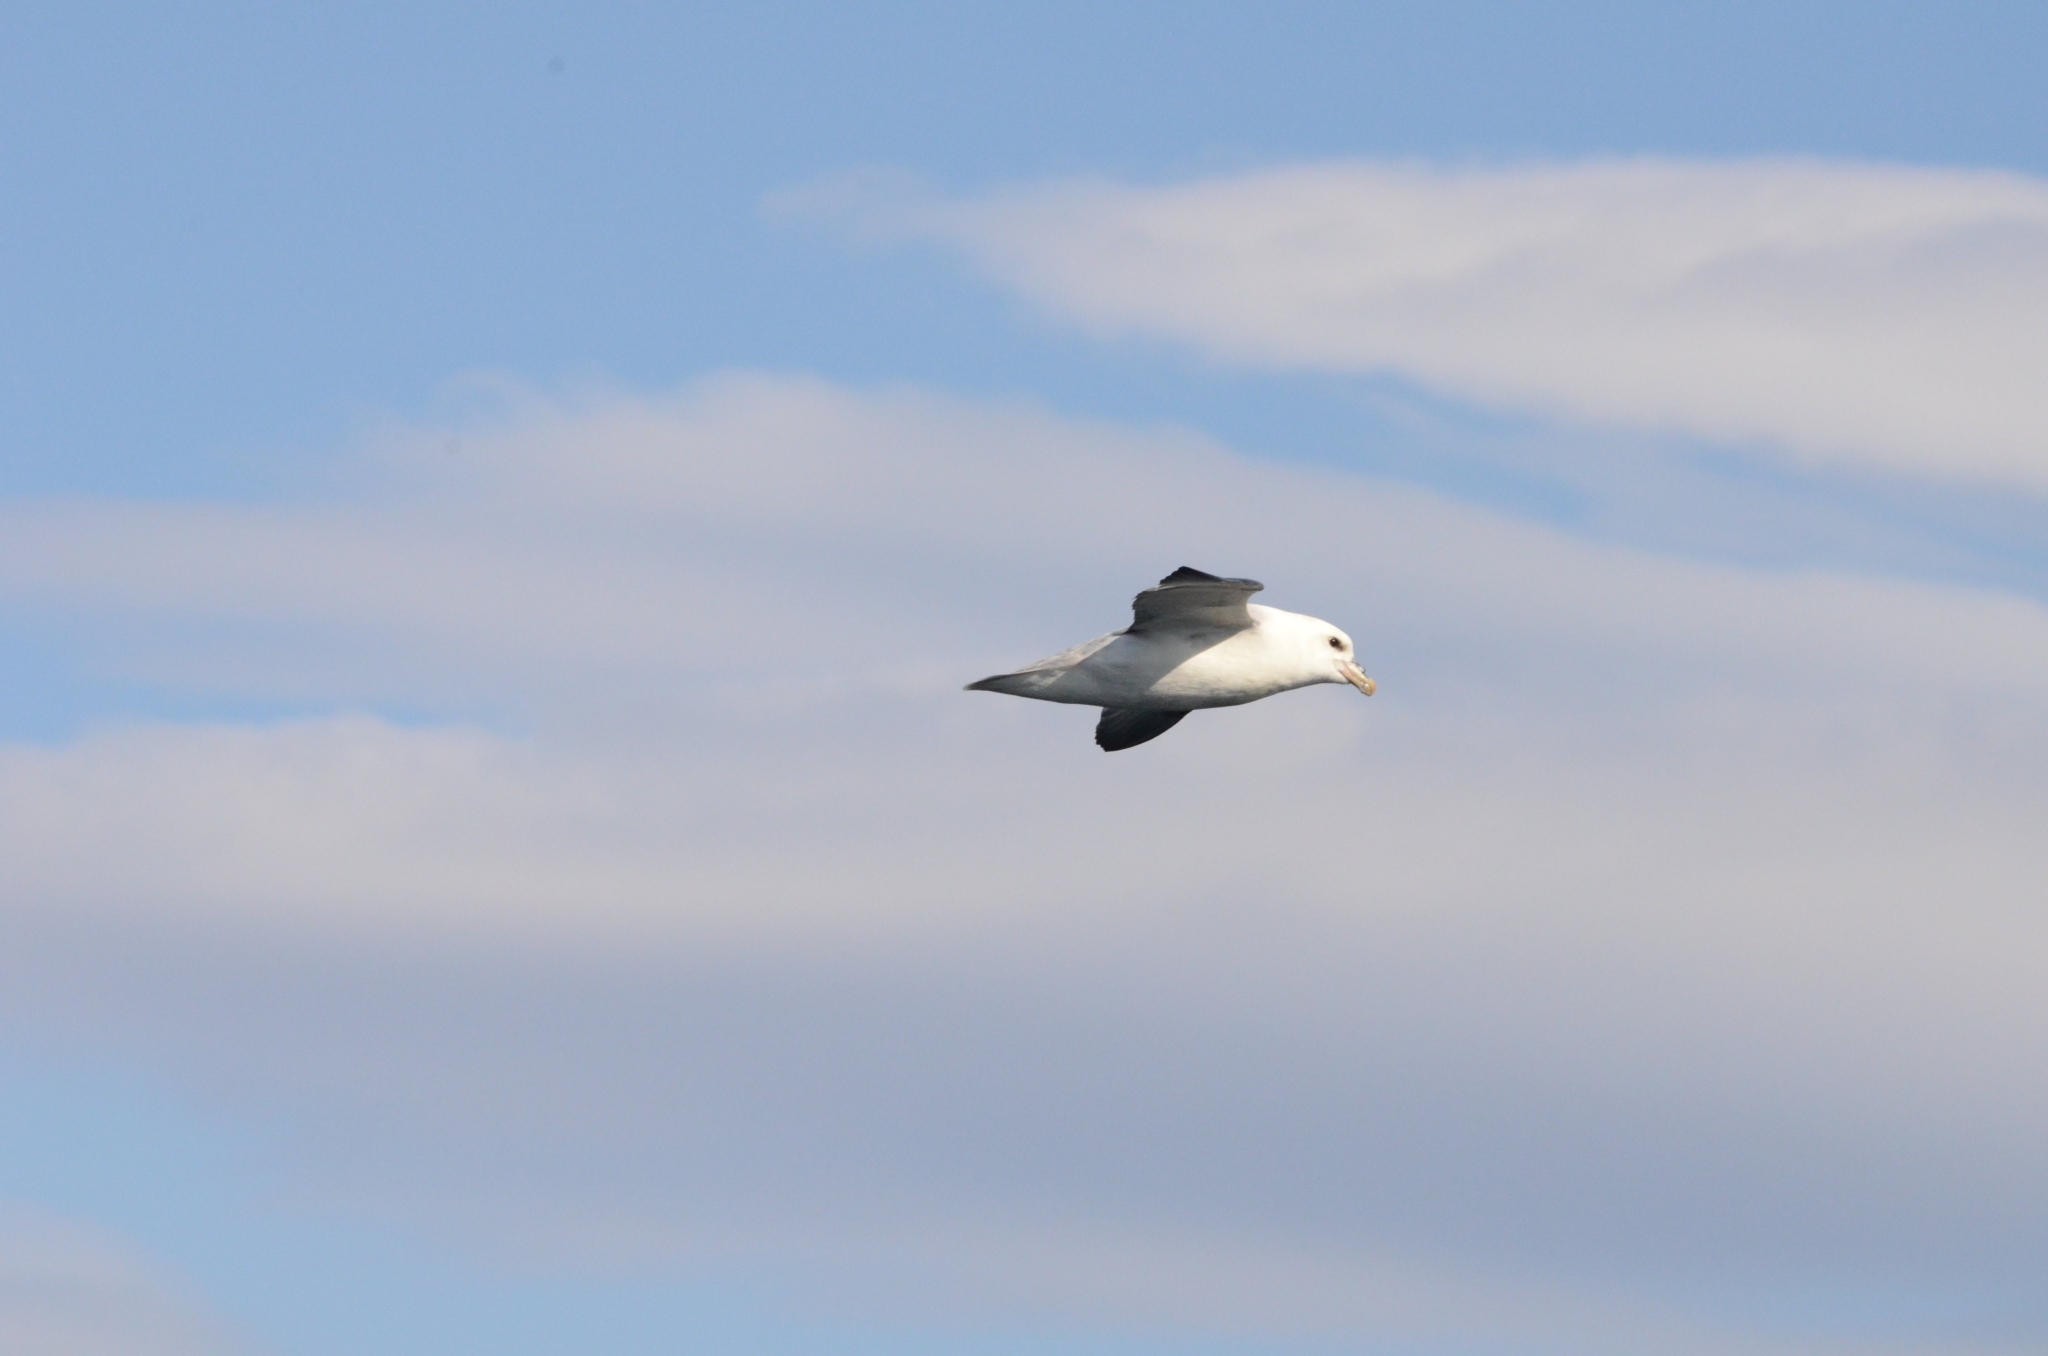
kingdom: Animalia
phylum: Chordata
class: Aves
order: Procellariiformes
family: Procellariidae
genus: Fulmarus
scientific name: Fulmarus glacialis
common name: Northern fulmar
